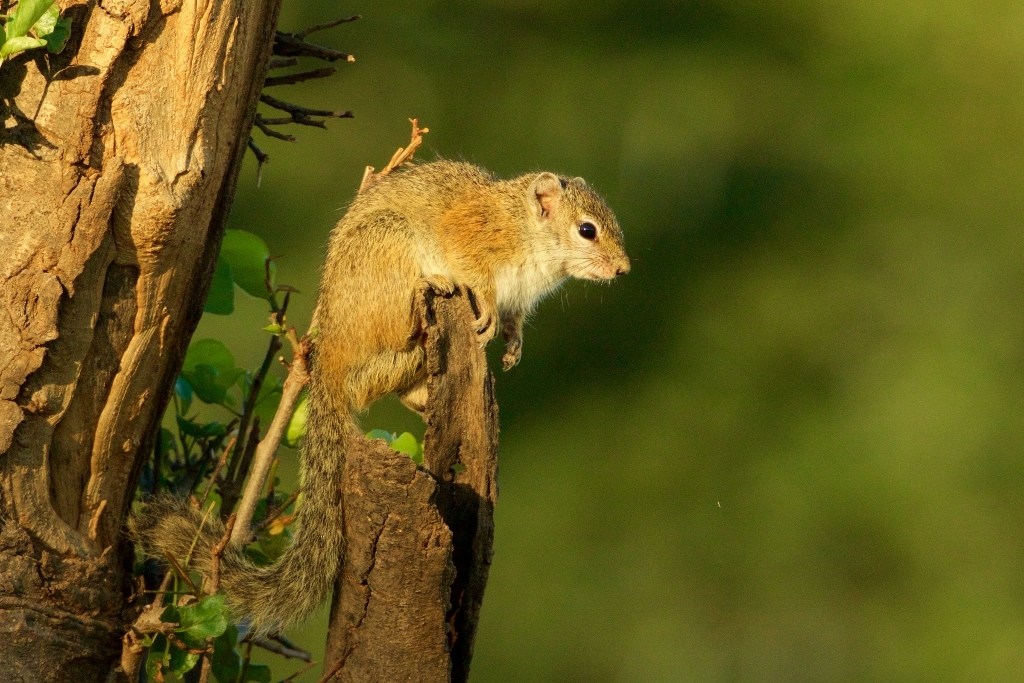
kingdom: Animalia
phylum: Chordata
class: Mammalia
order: Rodentia
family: Sciuridae
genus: Paraxerus
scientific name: Paraxerus cepapi
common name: Smith's bush squirrel
